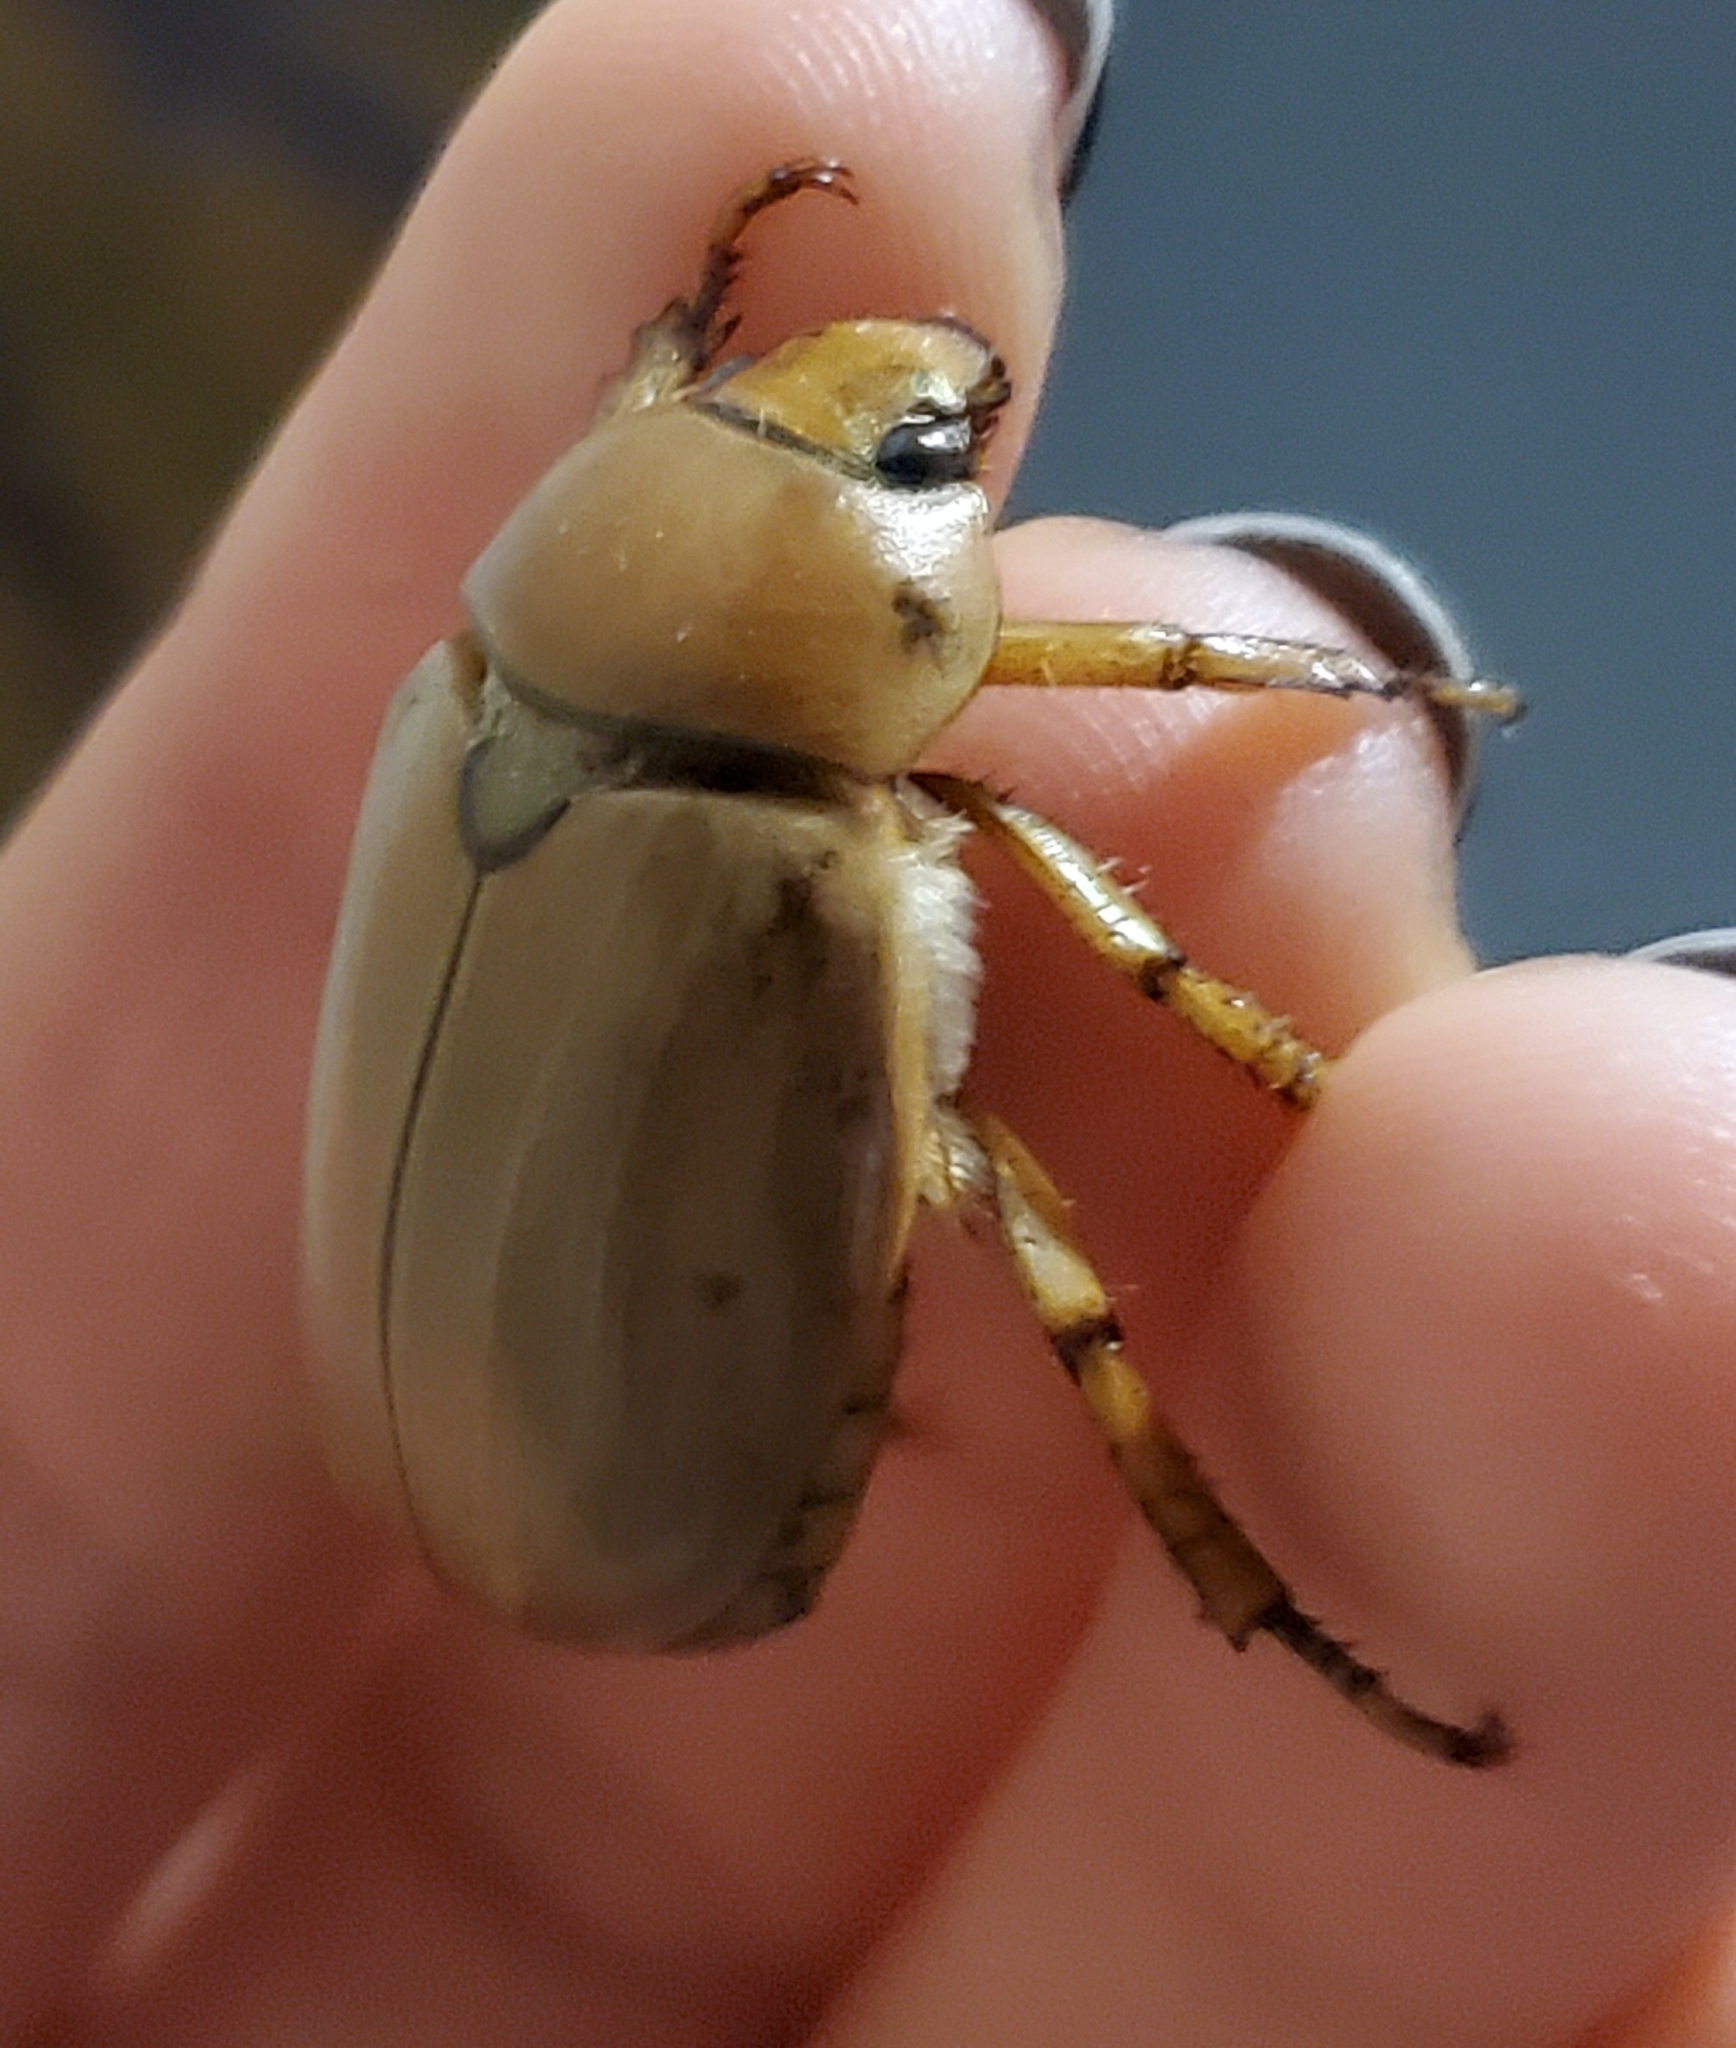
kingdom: Animalia
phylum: Arthropoda
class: Insecta
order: Coleoptera
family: Scarabaeidae
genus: Pelidnota
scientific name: Pelidnota punctata
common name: Grapevine beetle
